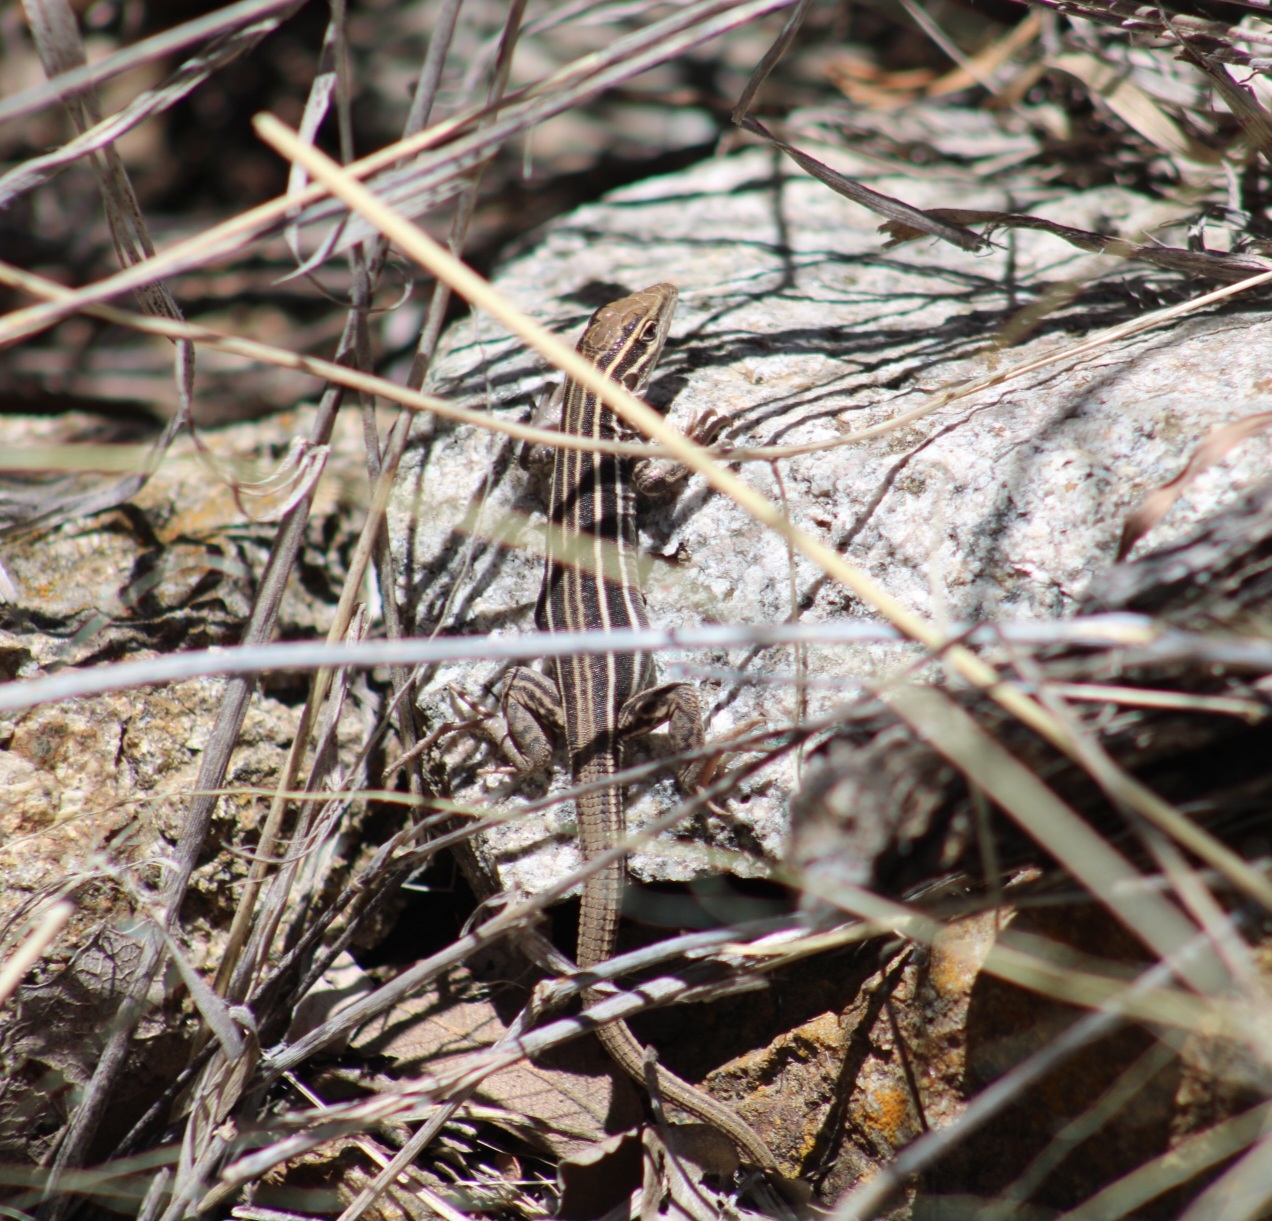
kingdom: Animalia
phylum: Chordata
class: Squamata
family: Teiidae
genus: Aspidoscelis
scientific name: Aspidoscelis sonorae
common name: Sonoran spotted whiptail
